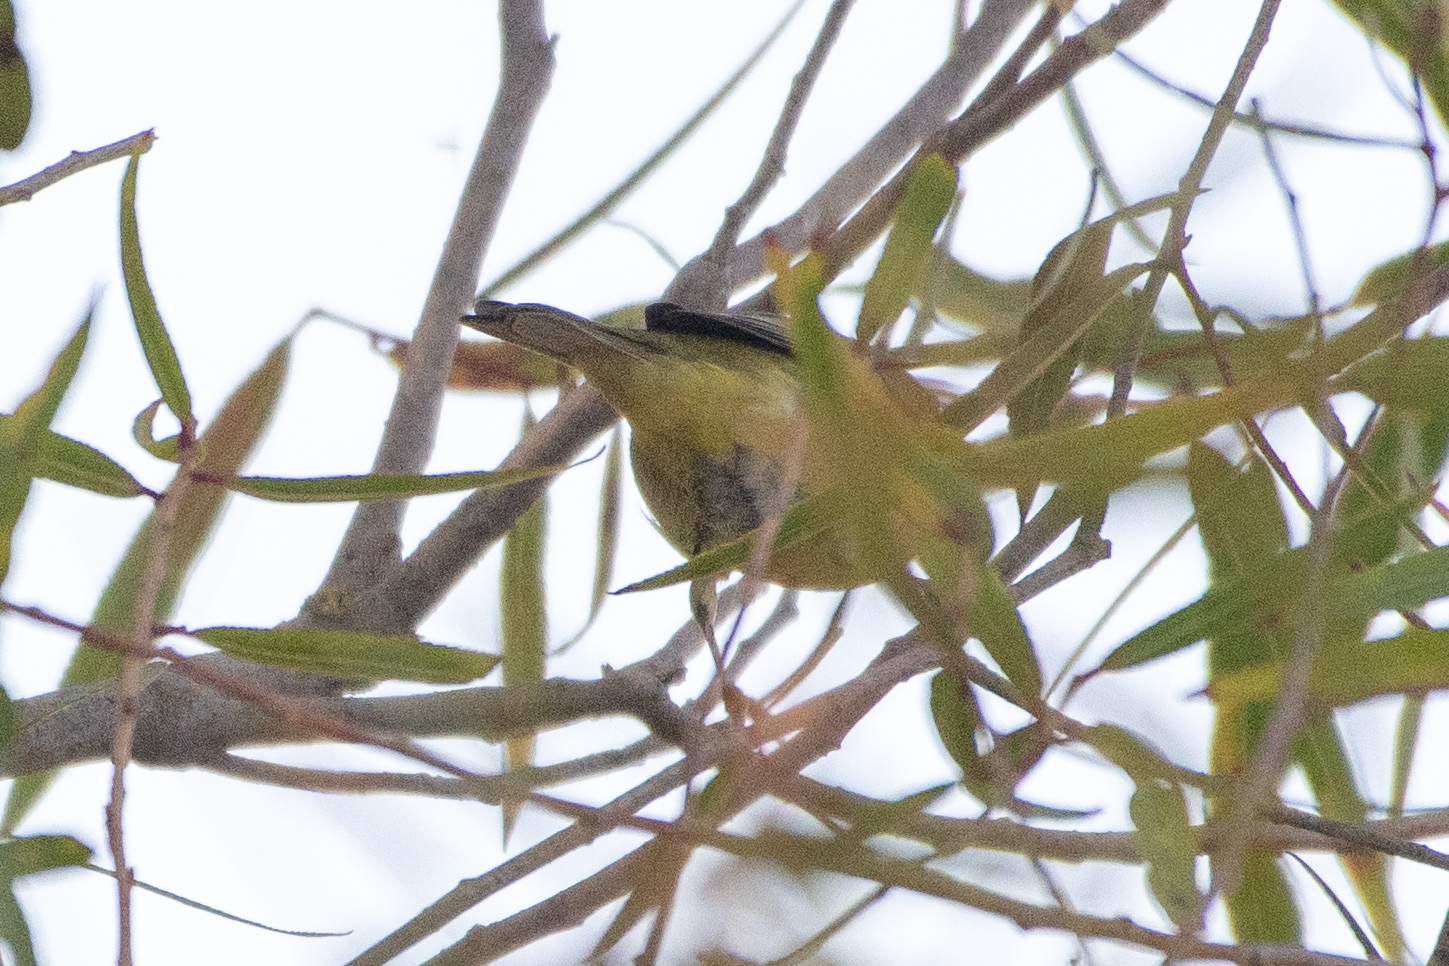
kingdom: Animalia
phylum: Chordata
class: Aves
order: Passeriformes
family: Parulidae
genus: Leiothlypis
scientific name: Leiothlypis celata
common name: Orange-crowned warbler
